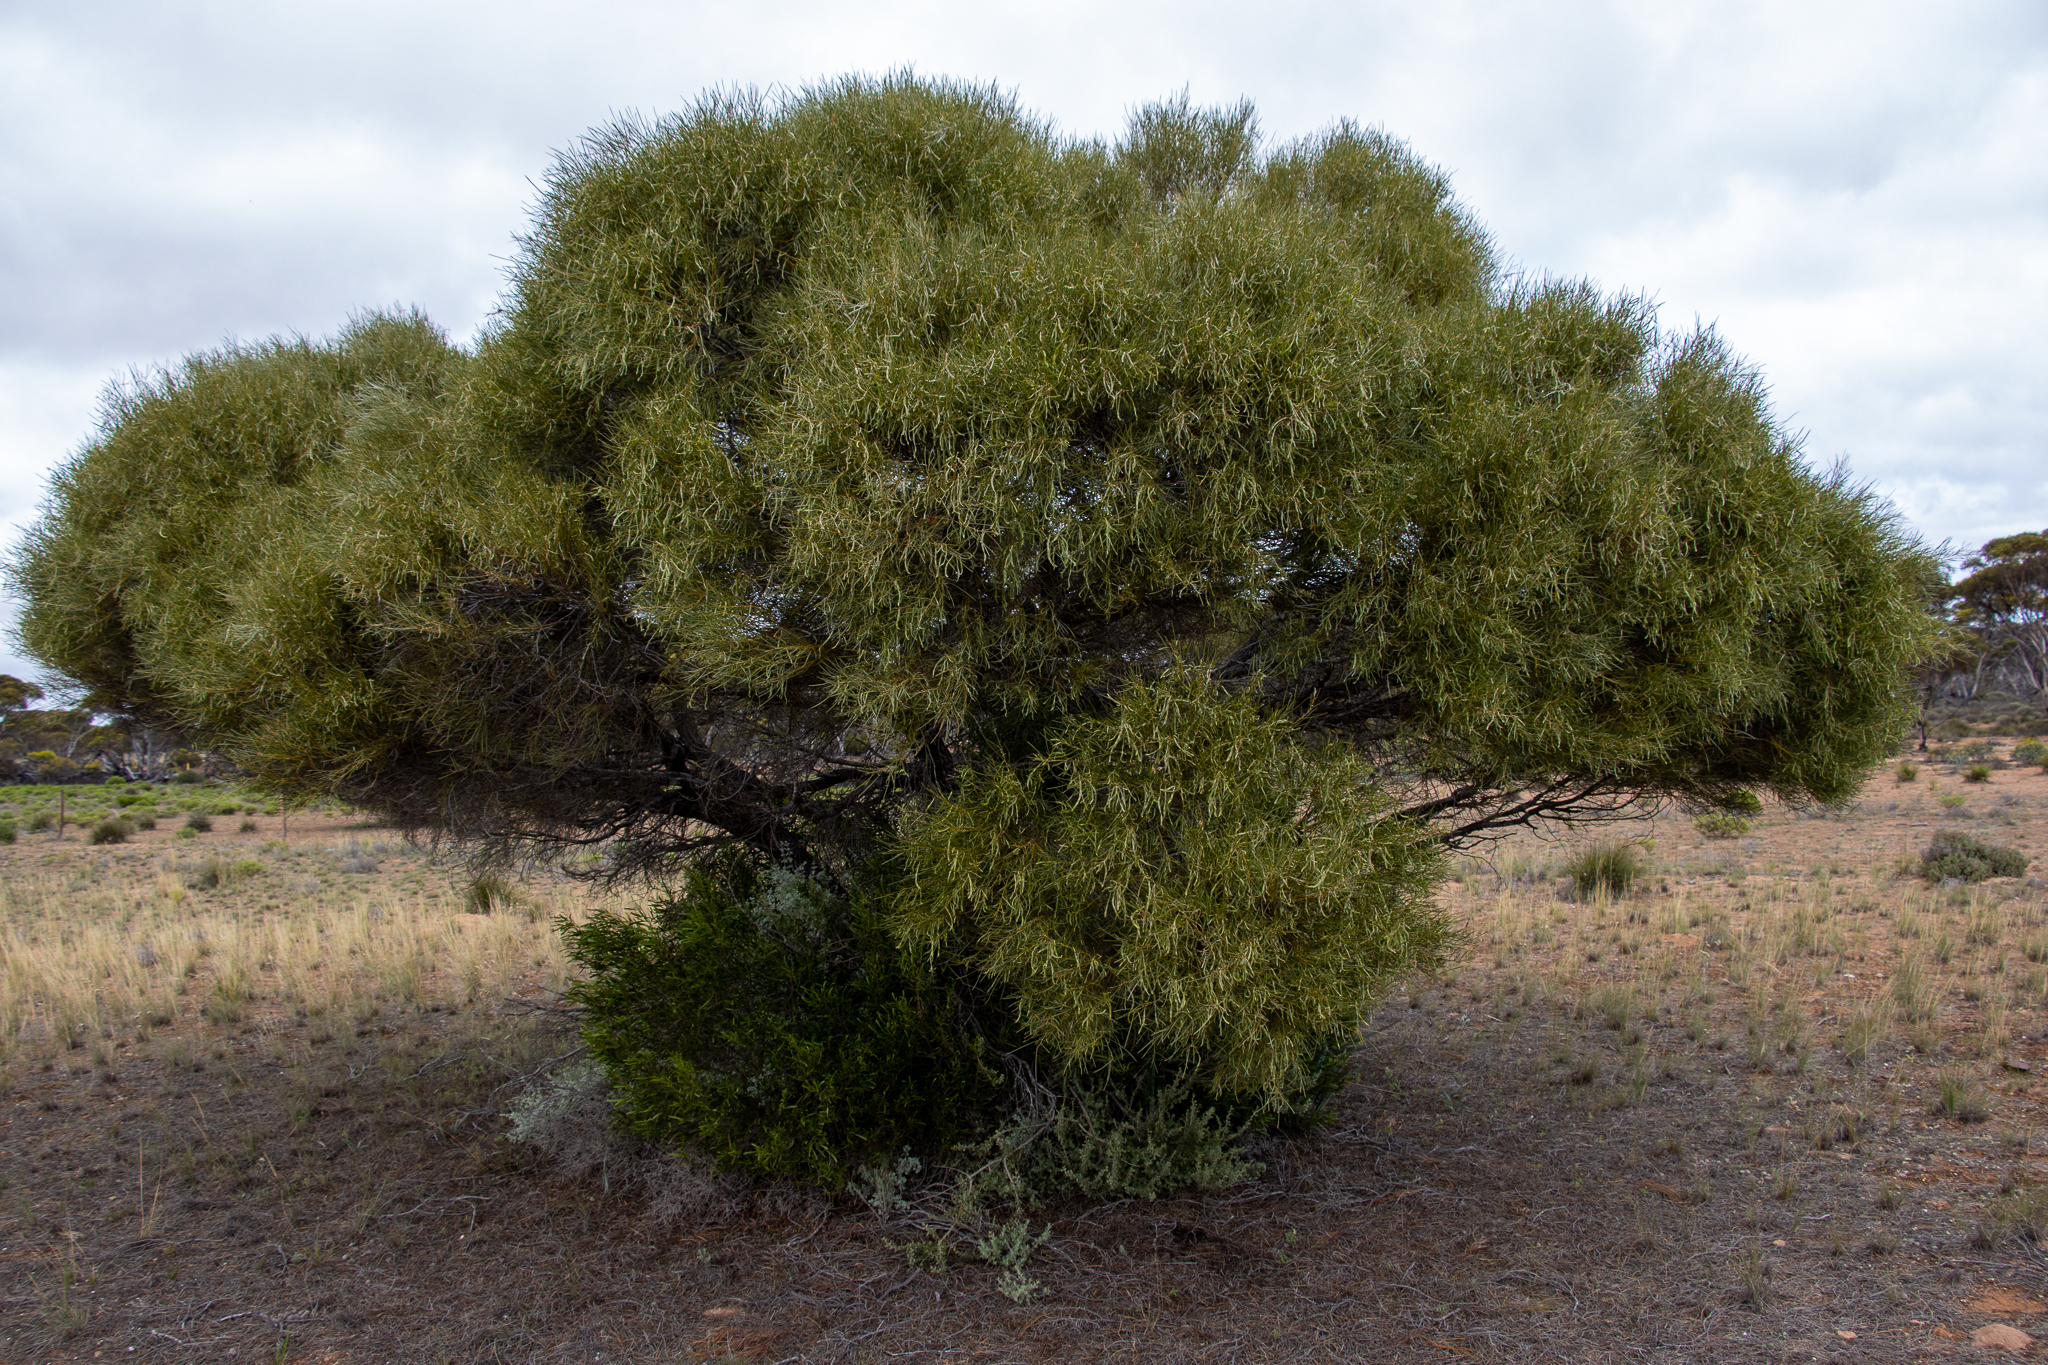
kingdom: Plantae
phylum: Tracheophyta
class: Magnoliopsida
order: Fabales
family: Fabaceae
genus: Acacia
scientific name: Acacia papyrocarpa
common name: Western myall
